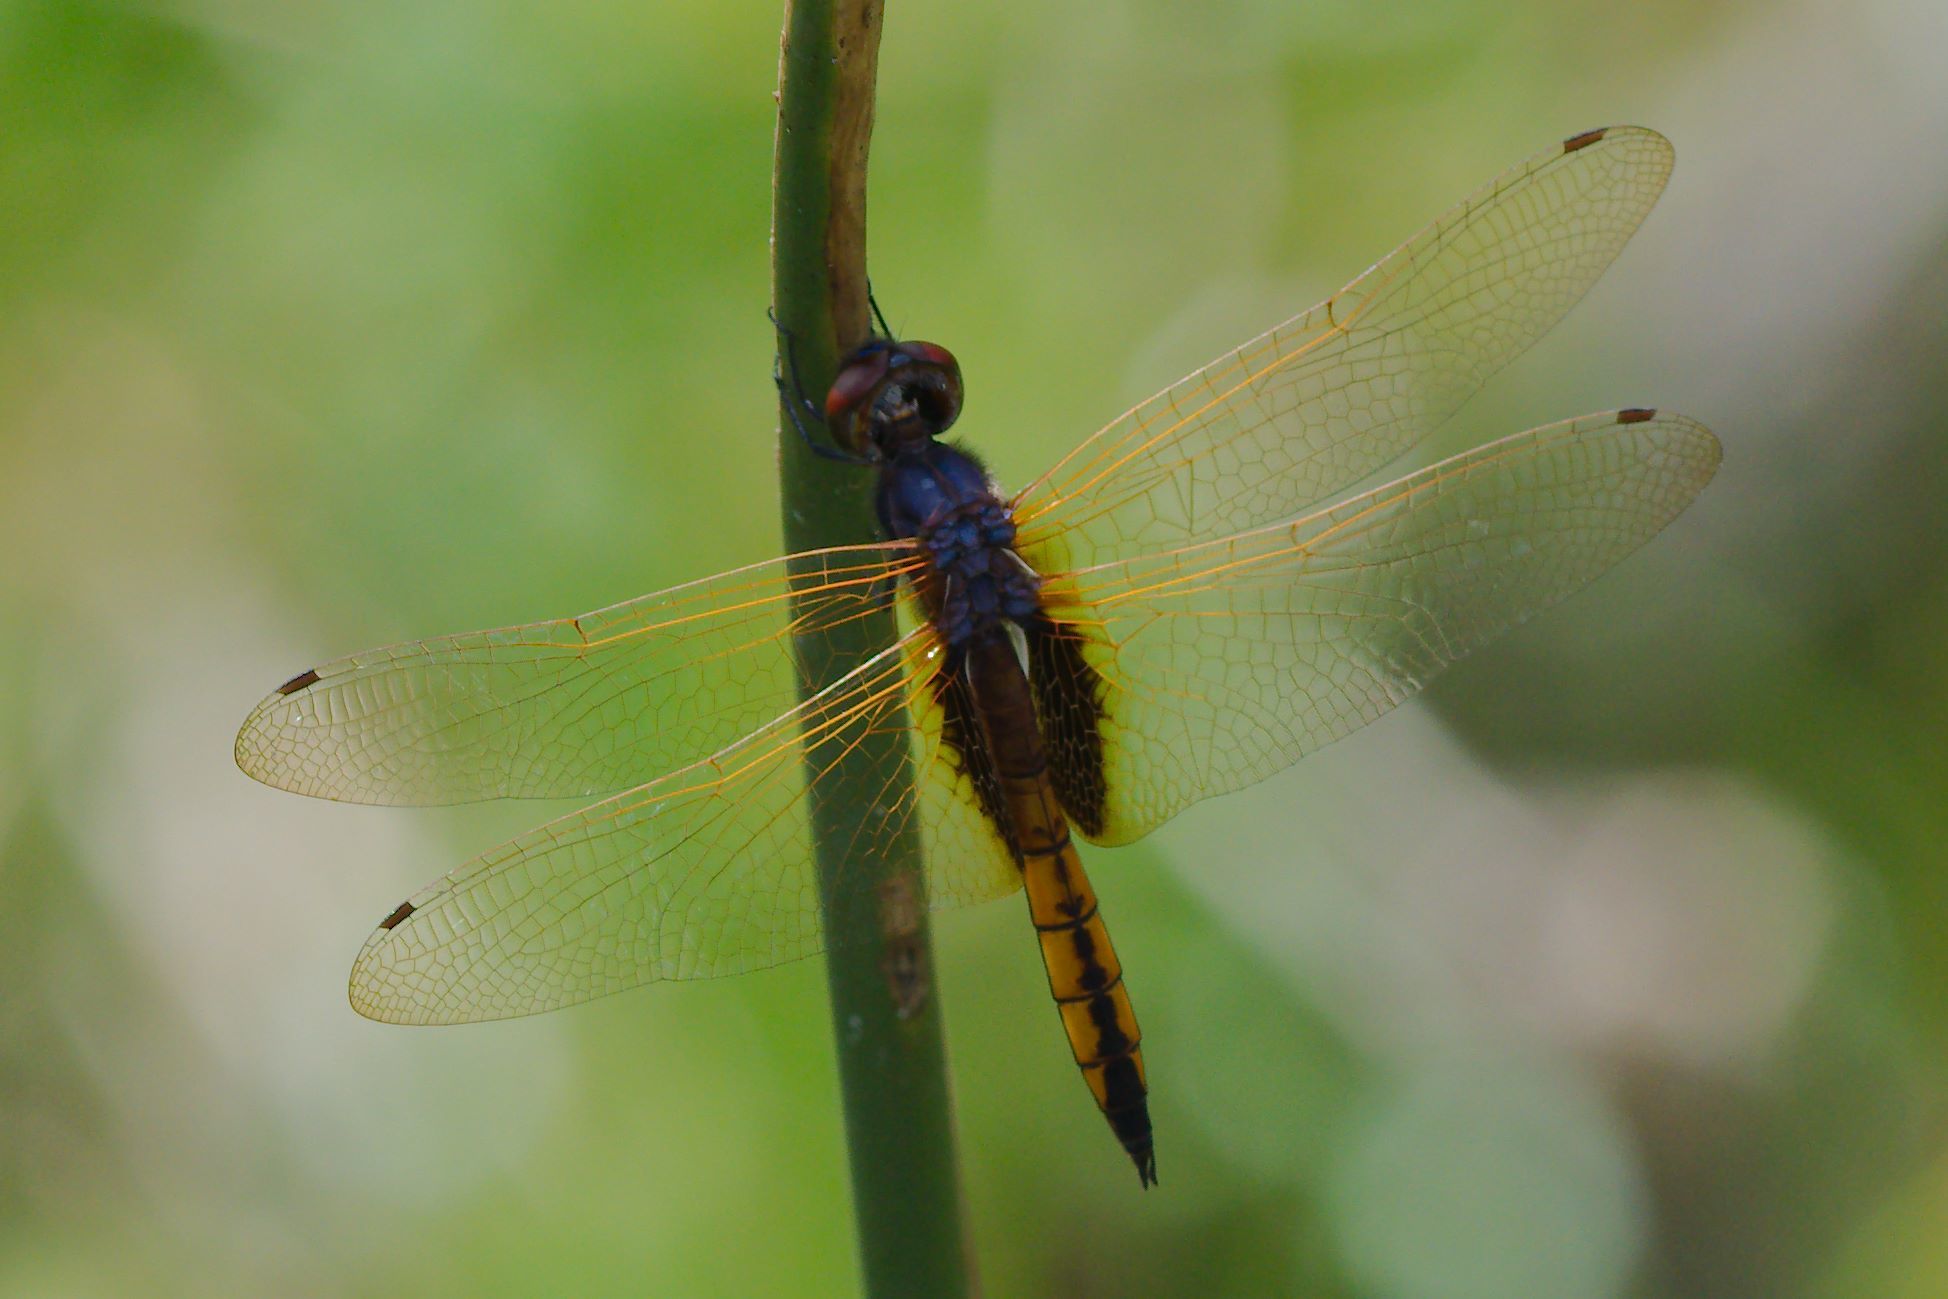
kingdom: Animalia
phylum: Arthropoda
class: Insecta
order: Odonata
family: Libellulidae
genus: Miathyria
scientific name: Miathyria marcella
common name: Hyacinth glider
